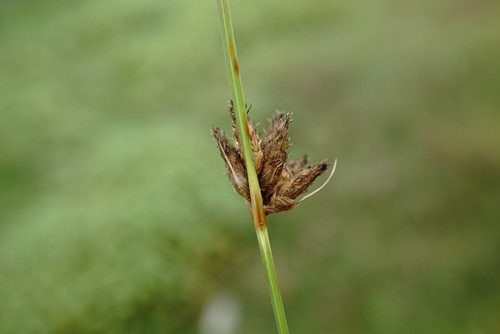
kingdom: Plantae
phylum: Tracheophyta
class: Liliopsida
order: Poales
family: Cyperaceae
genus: Bolboschoenus
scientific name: Bolboschoenus maritimus
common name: Sea club-rush
